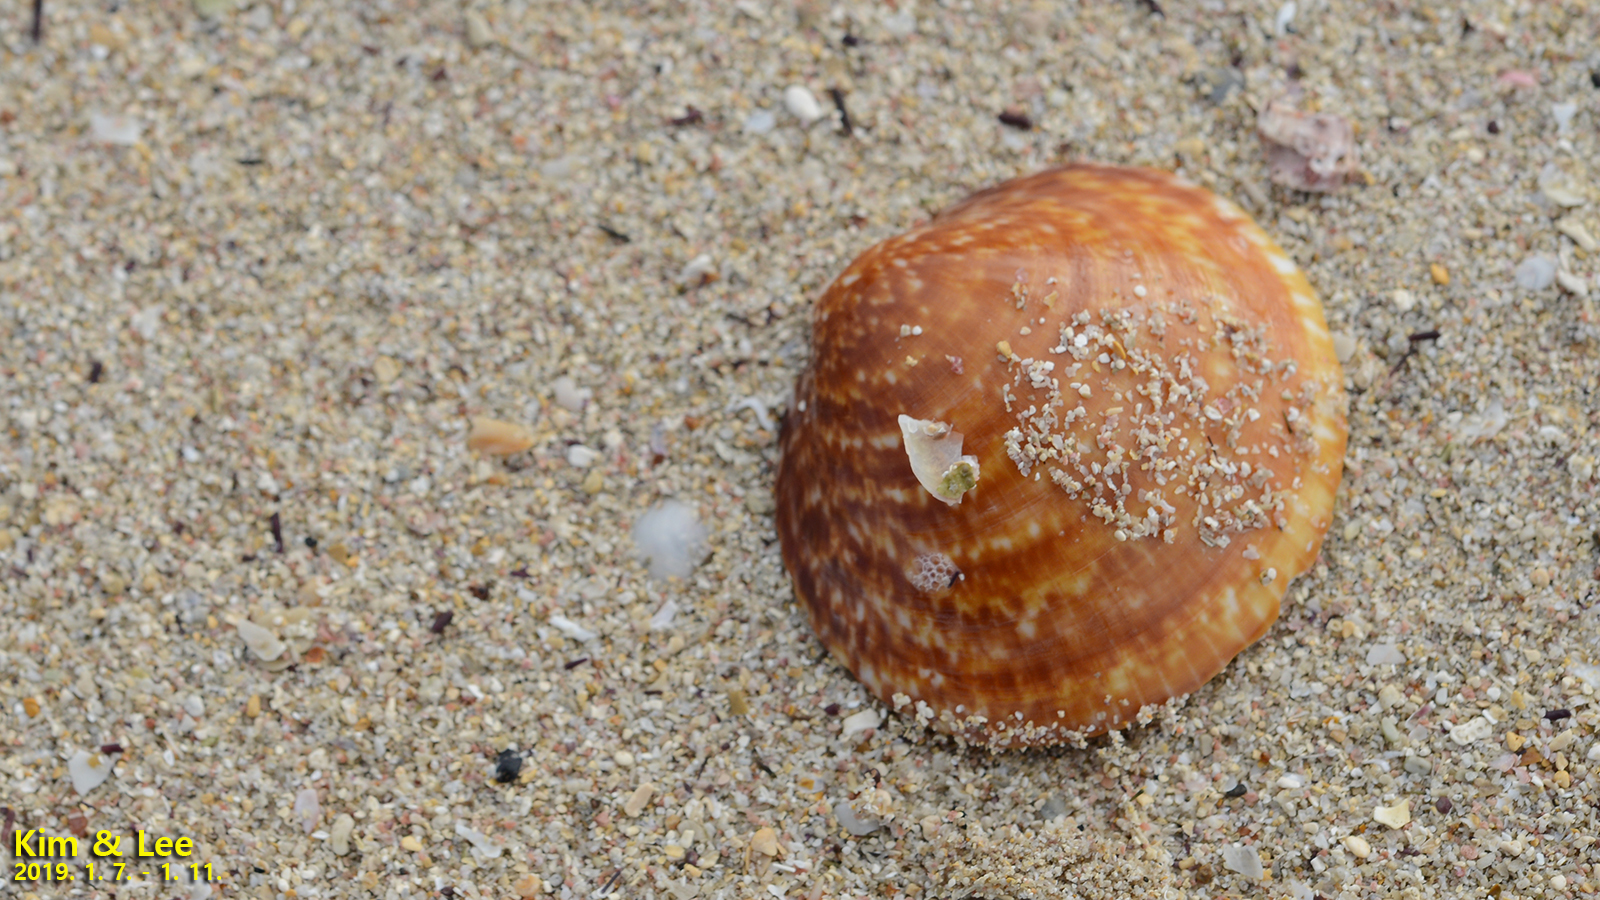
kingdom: Animalia
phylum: Mollusca
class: Bivalvia
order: Arcida
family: Glycymerididae
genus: Glycymeris
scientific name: Glycymeris aspersa
